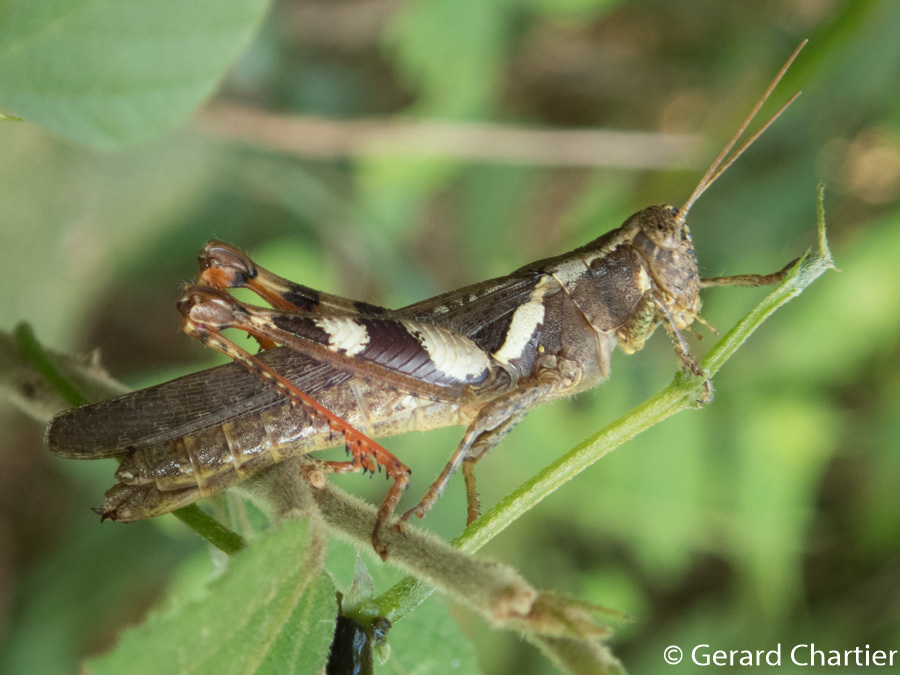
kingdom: Animalia
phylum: Arthropoda
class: Insecta
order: Orthoptera
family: Acrididae
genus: Xenocatantops
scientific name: Xenocatantops humile
